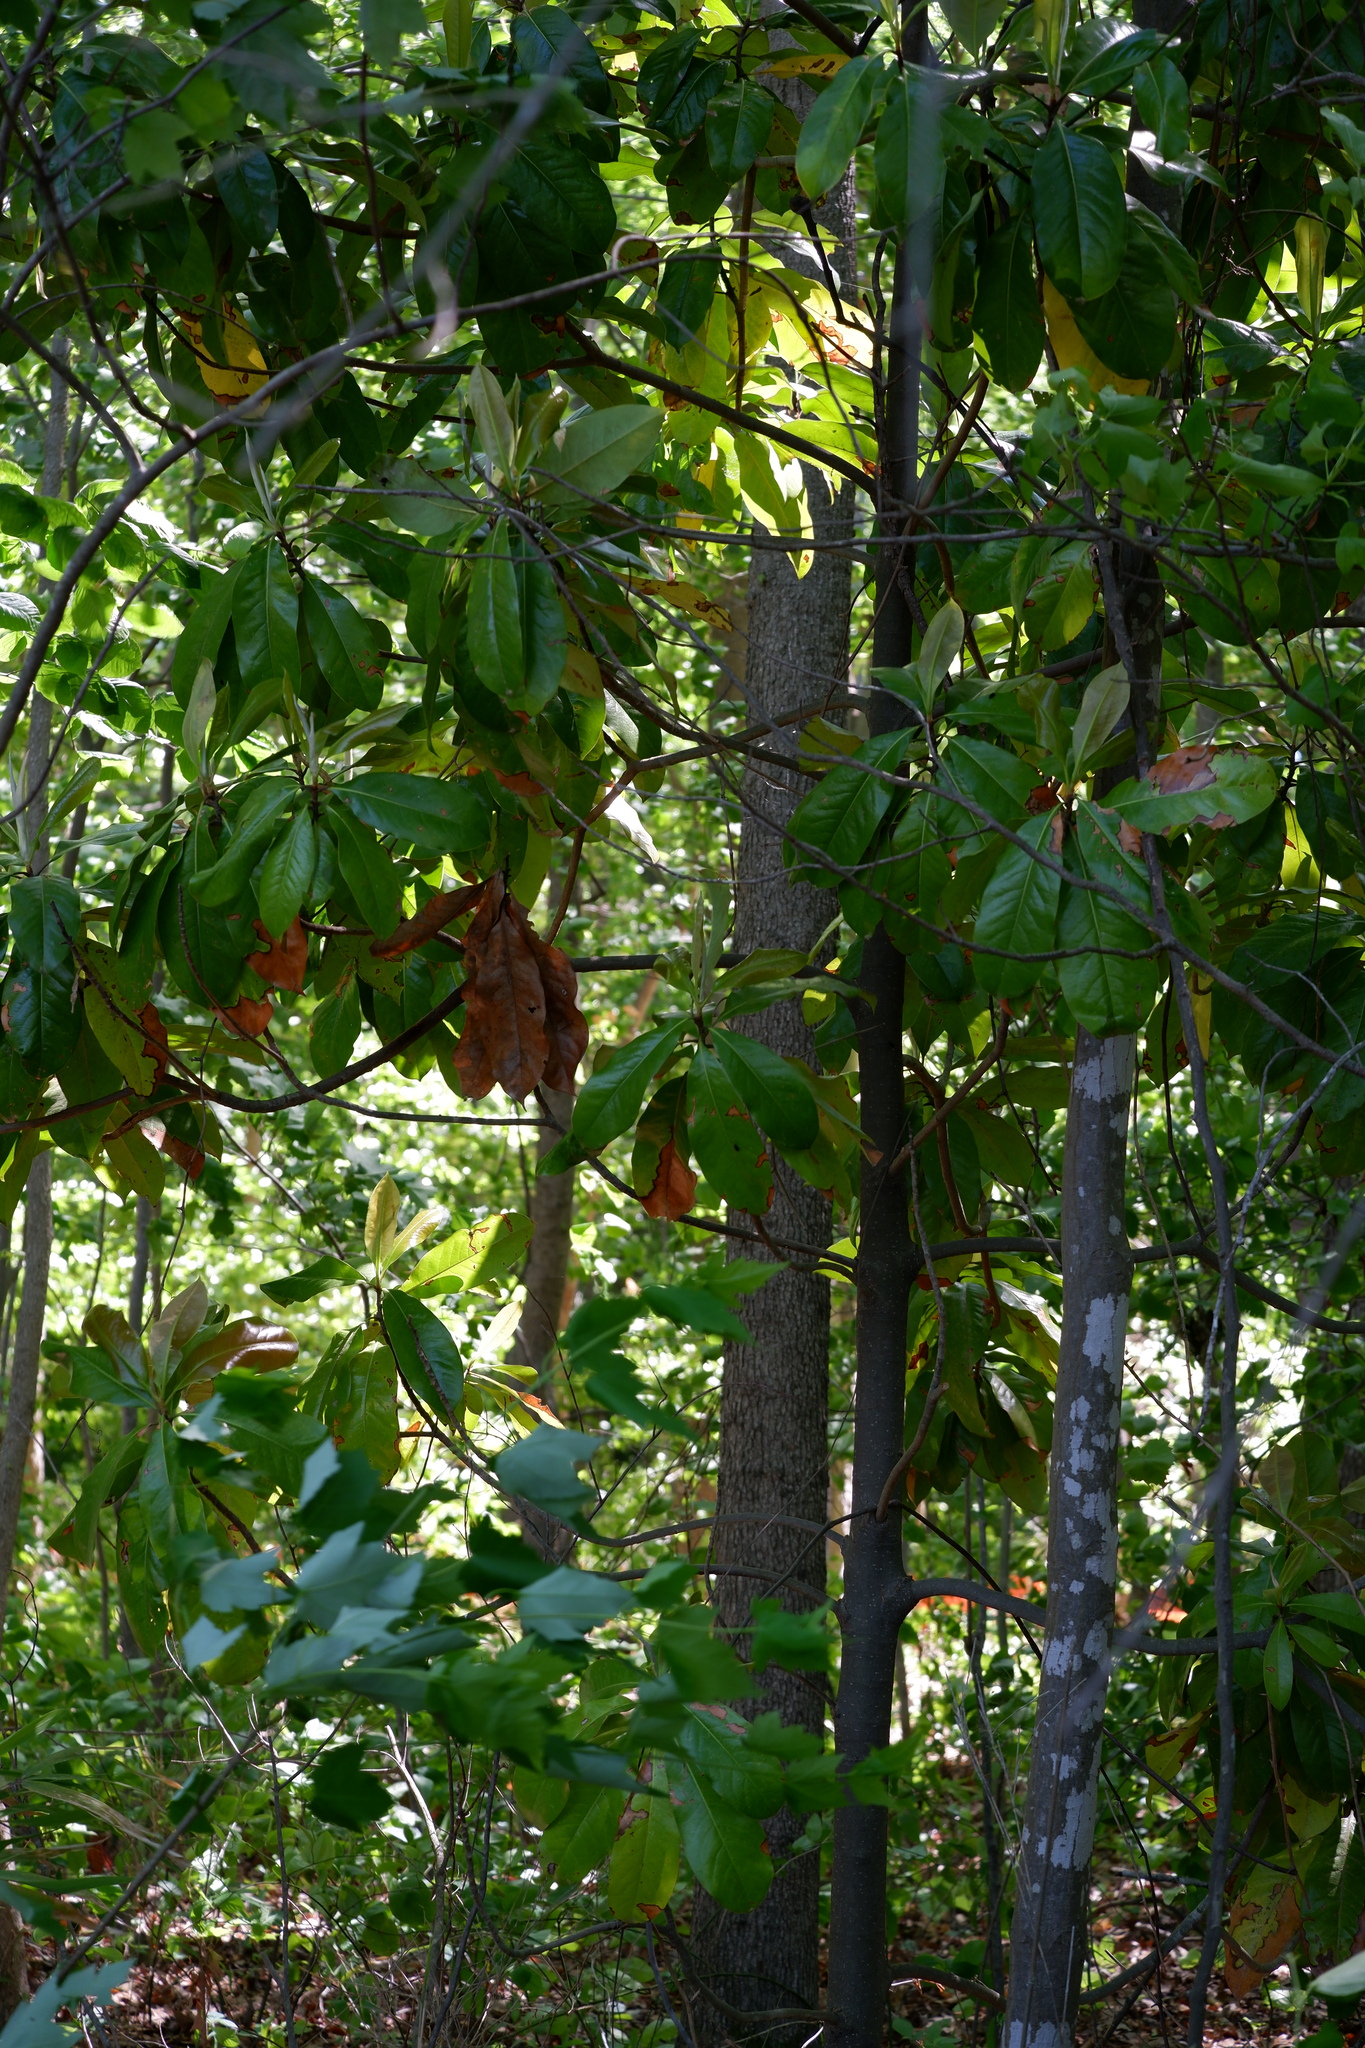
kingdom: Plantae
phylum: Tracheophyta
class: Magnoliopsida
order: Magnoliales
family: Magnoliaceae
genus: Magnolia
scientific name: Magnolia grandiflora
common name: Southern magnolia
